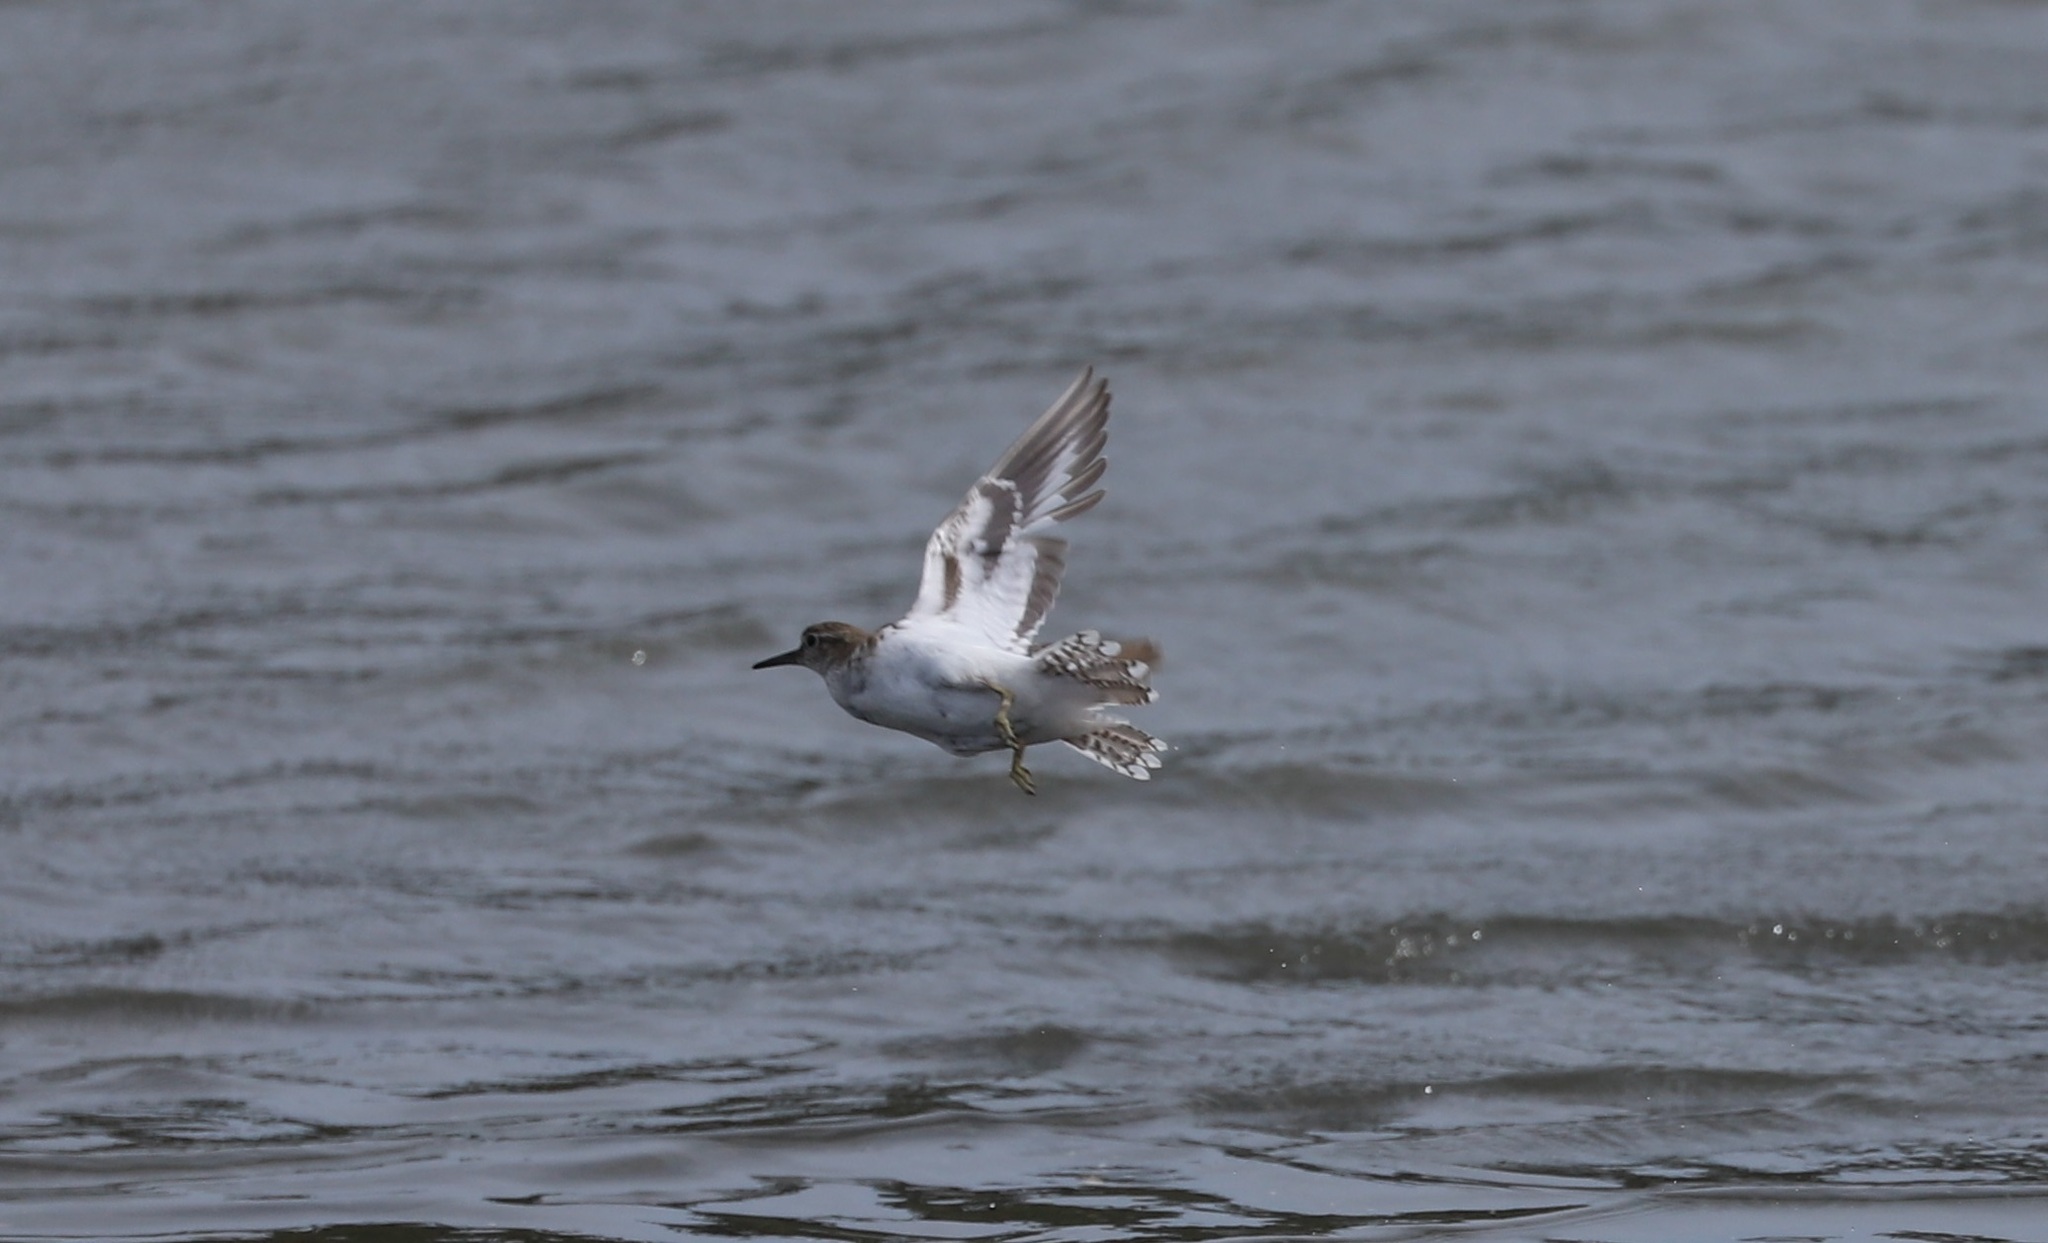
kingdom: Animalia
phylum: Chordata
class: Aves
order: Charadriiformes
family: Scolopacidae
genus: Actitis
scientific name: Actitis hypoleucos
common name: Common sandpiper
